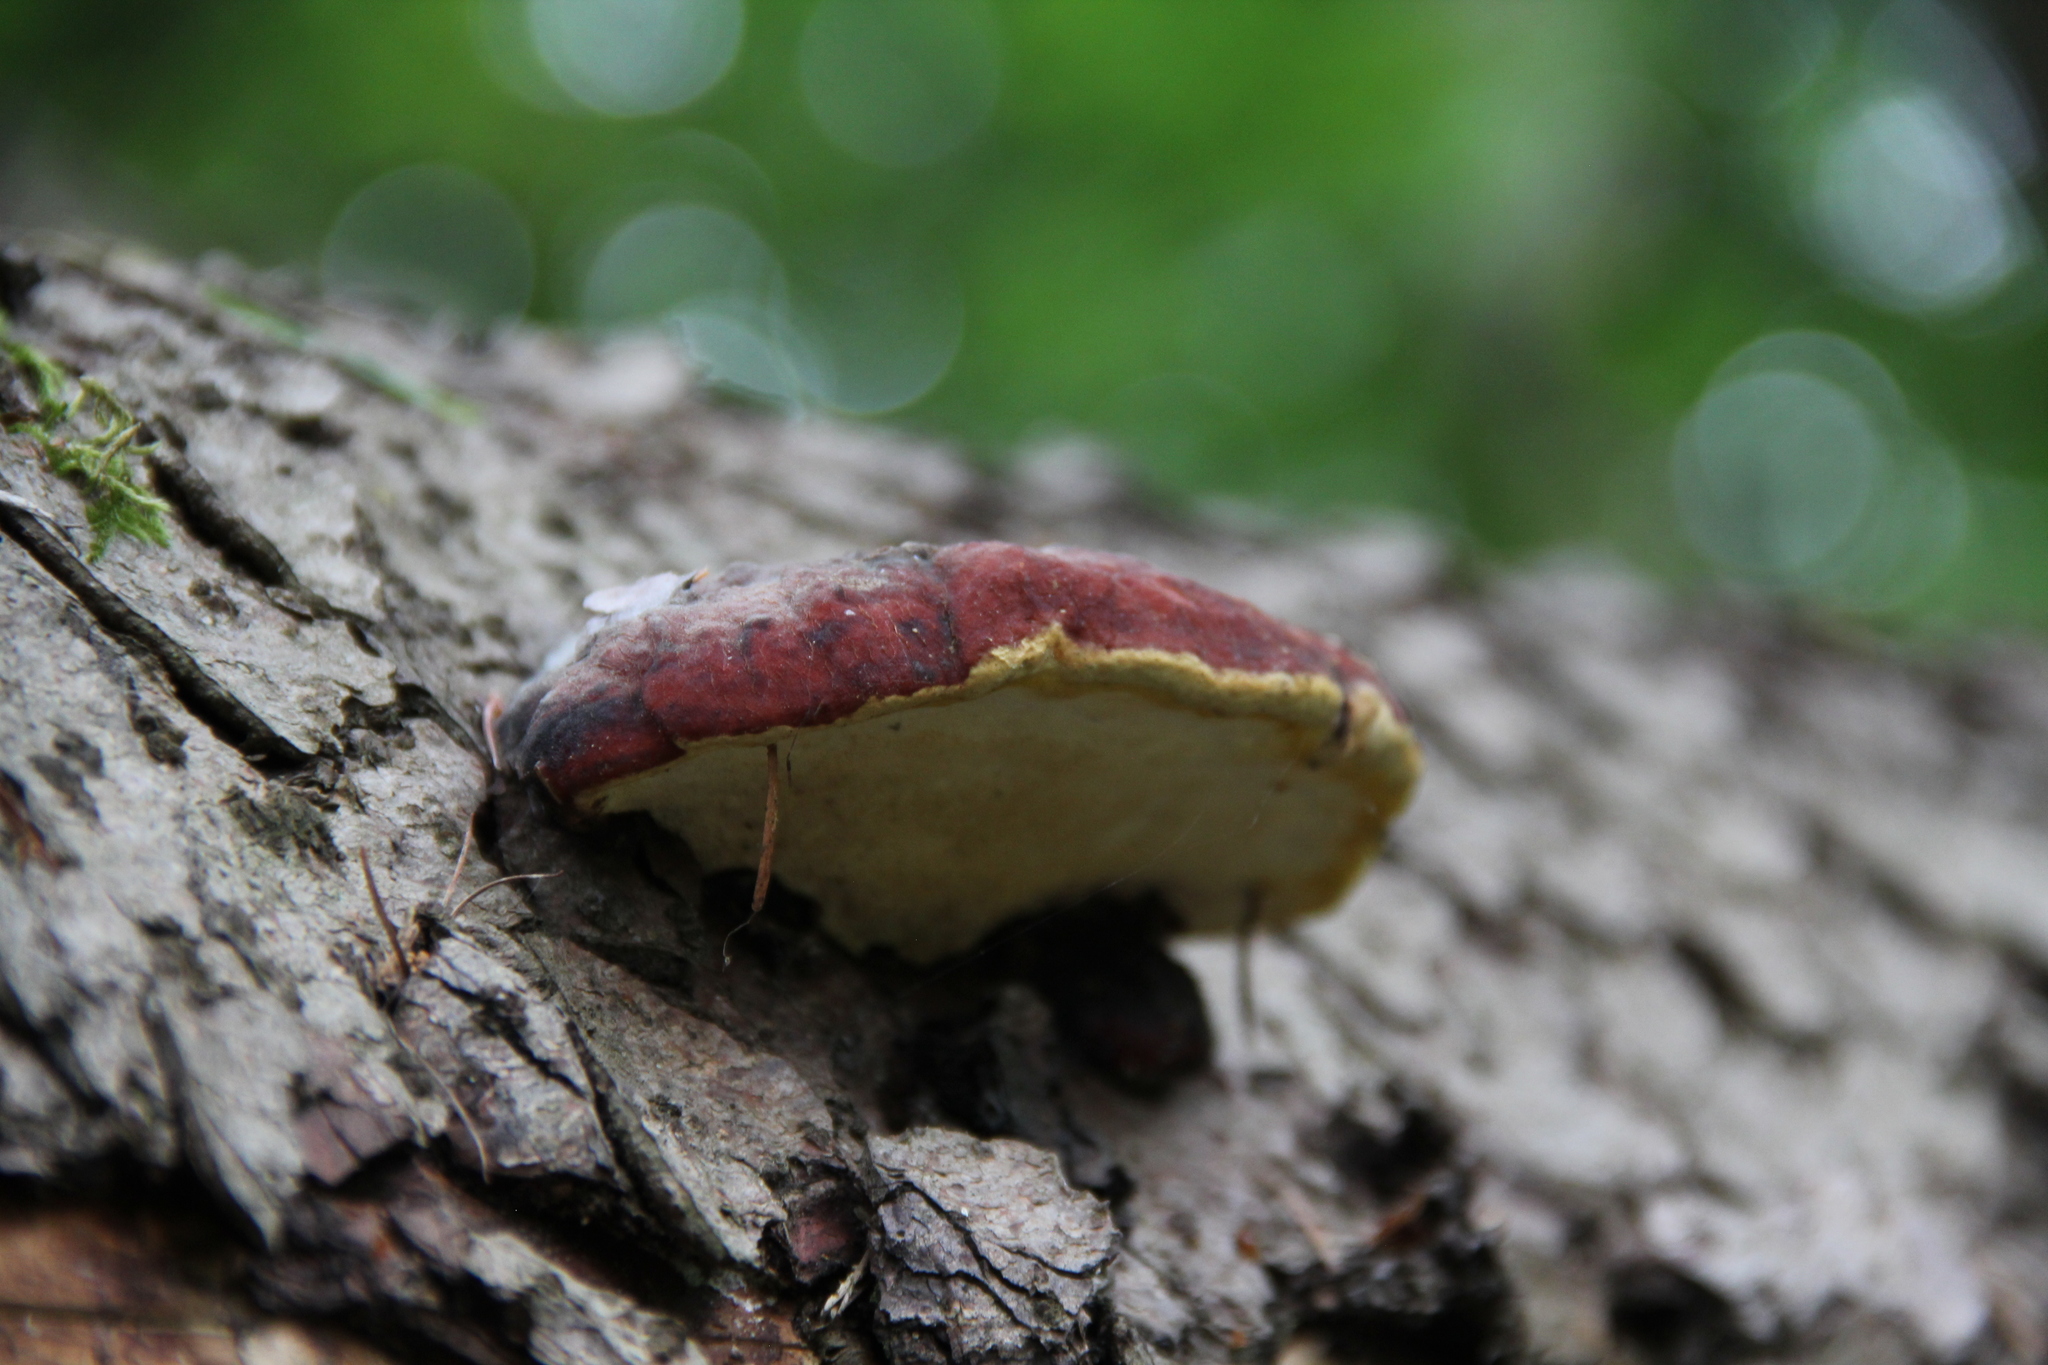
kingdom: Fungi
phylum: Basidiomycota
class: Agaricomycetes
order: Polyporales
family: Fomitopsidaceae
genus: Fomitopsis
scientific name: Fomitopsis pinicola
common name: Red-belted bracket
